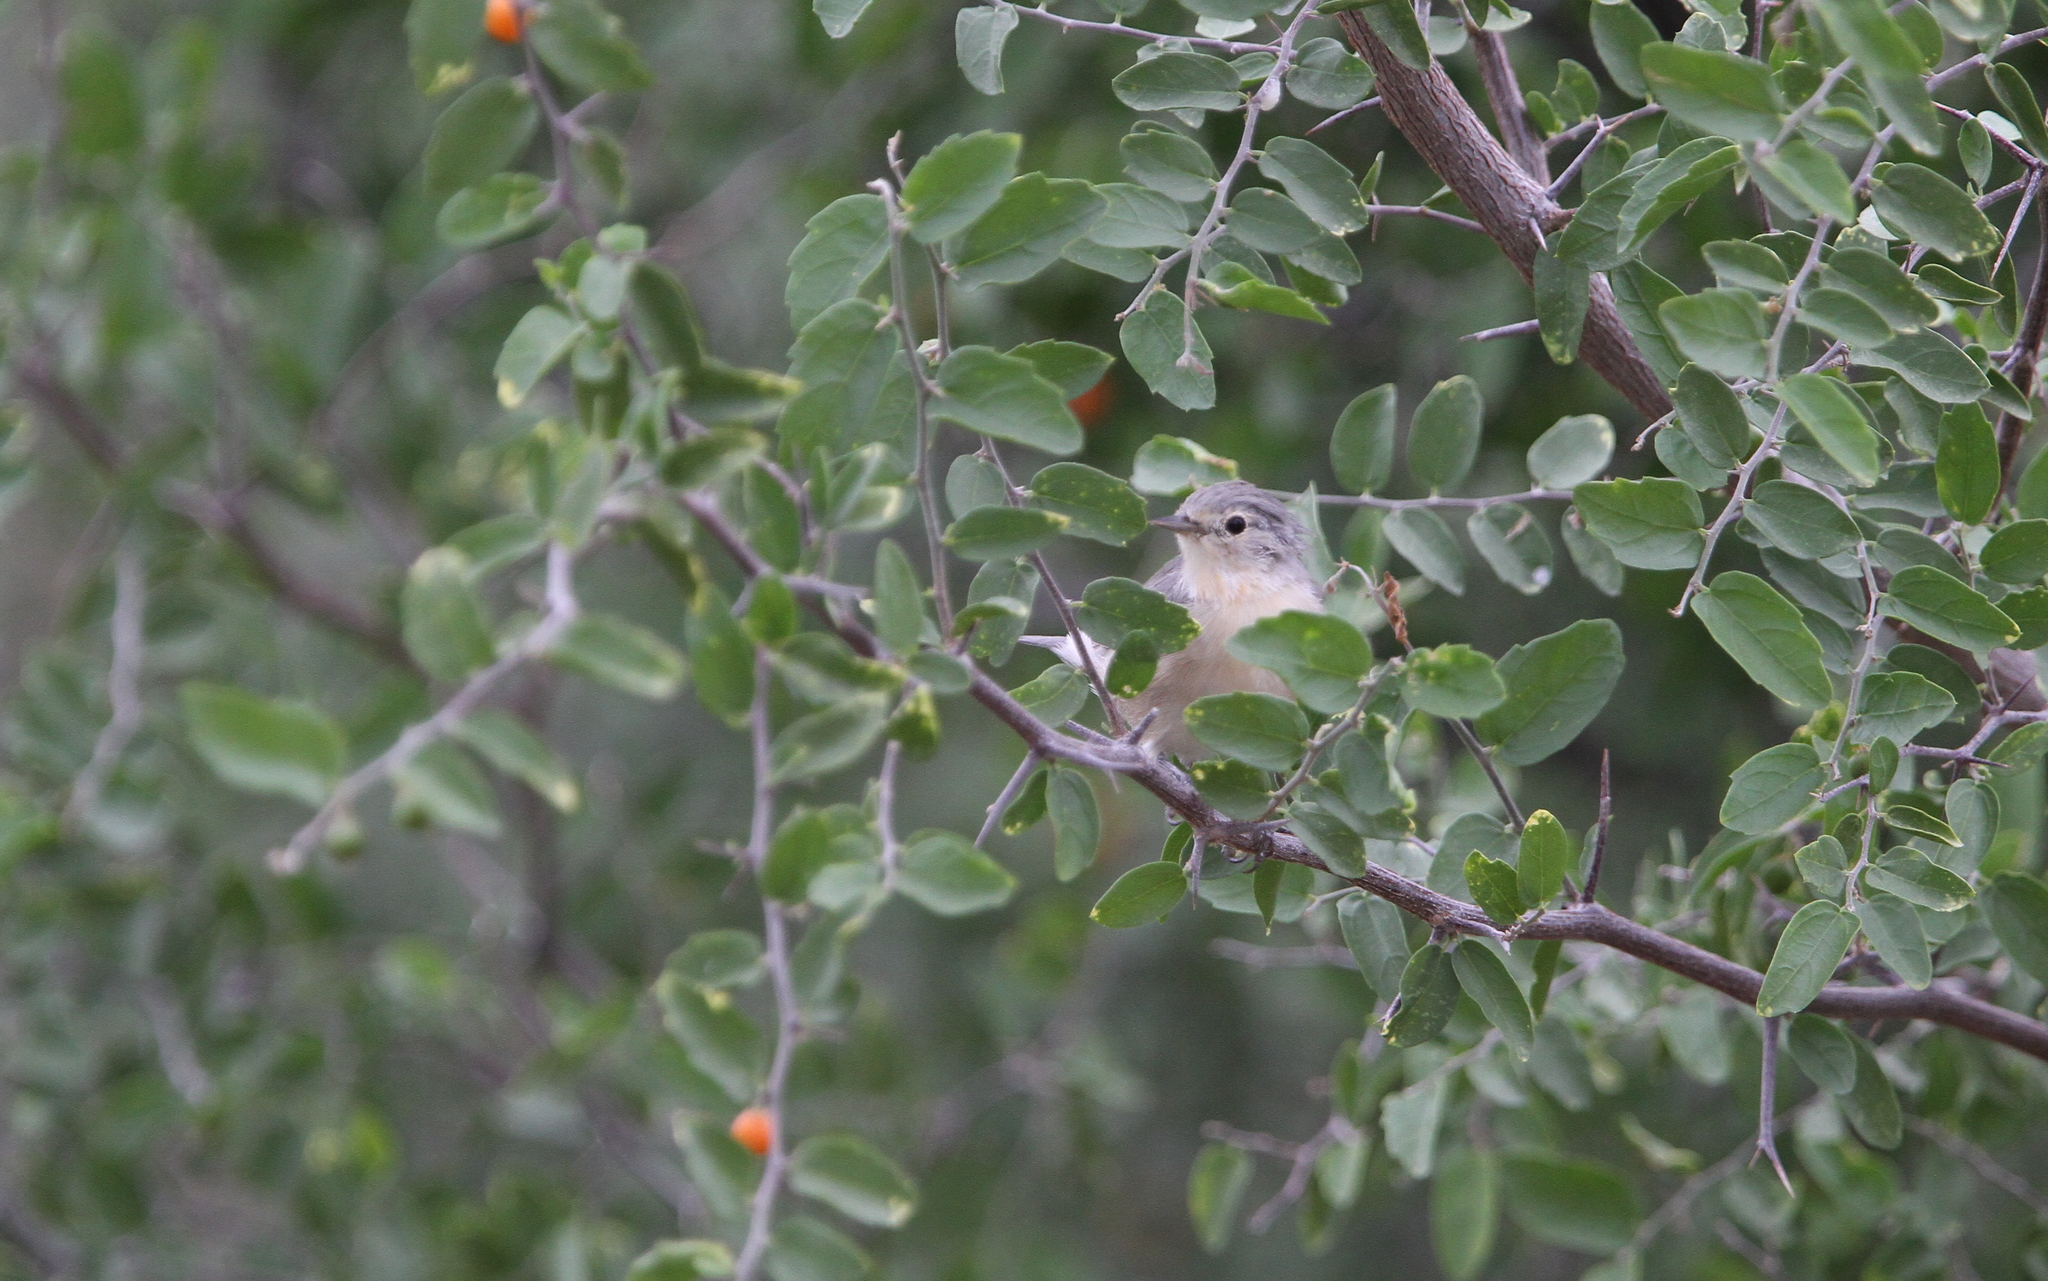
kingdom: Animalia
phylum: Chordata
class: Aves
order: Passeriformes
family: Parulidae
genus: Leiothlypis
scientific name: Leiothlypis luciae
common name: Lucy's warbler
